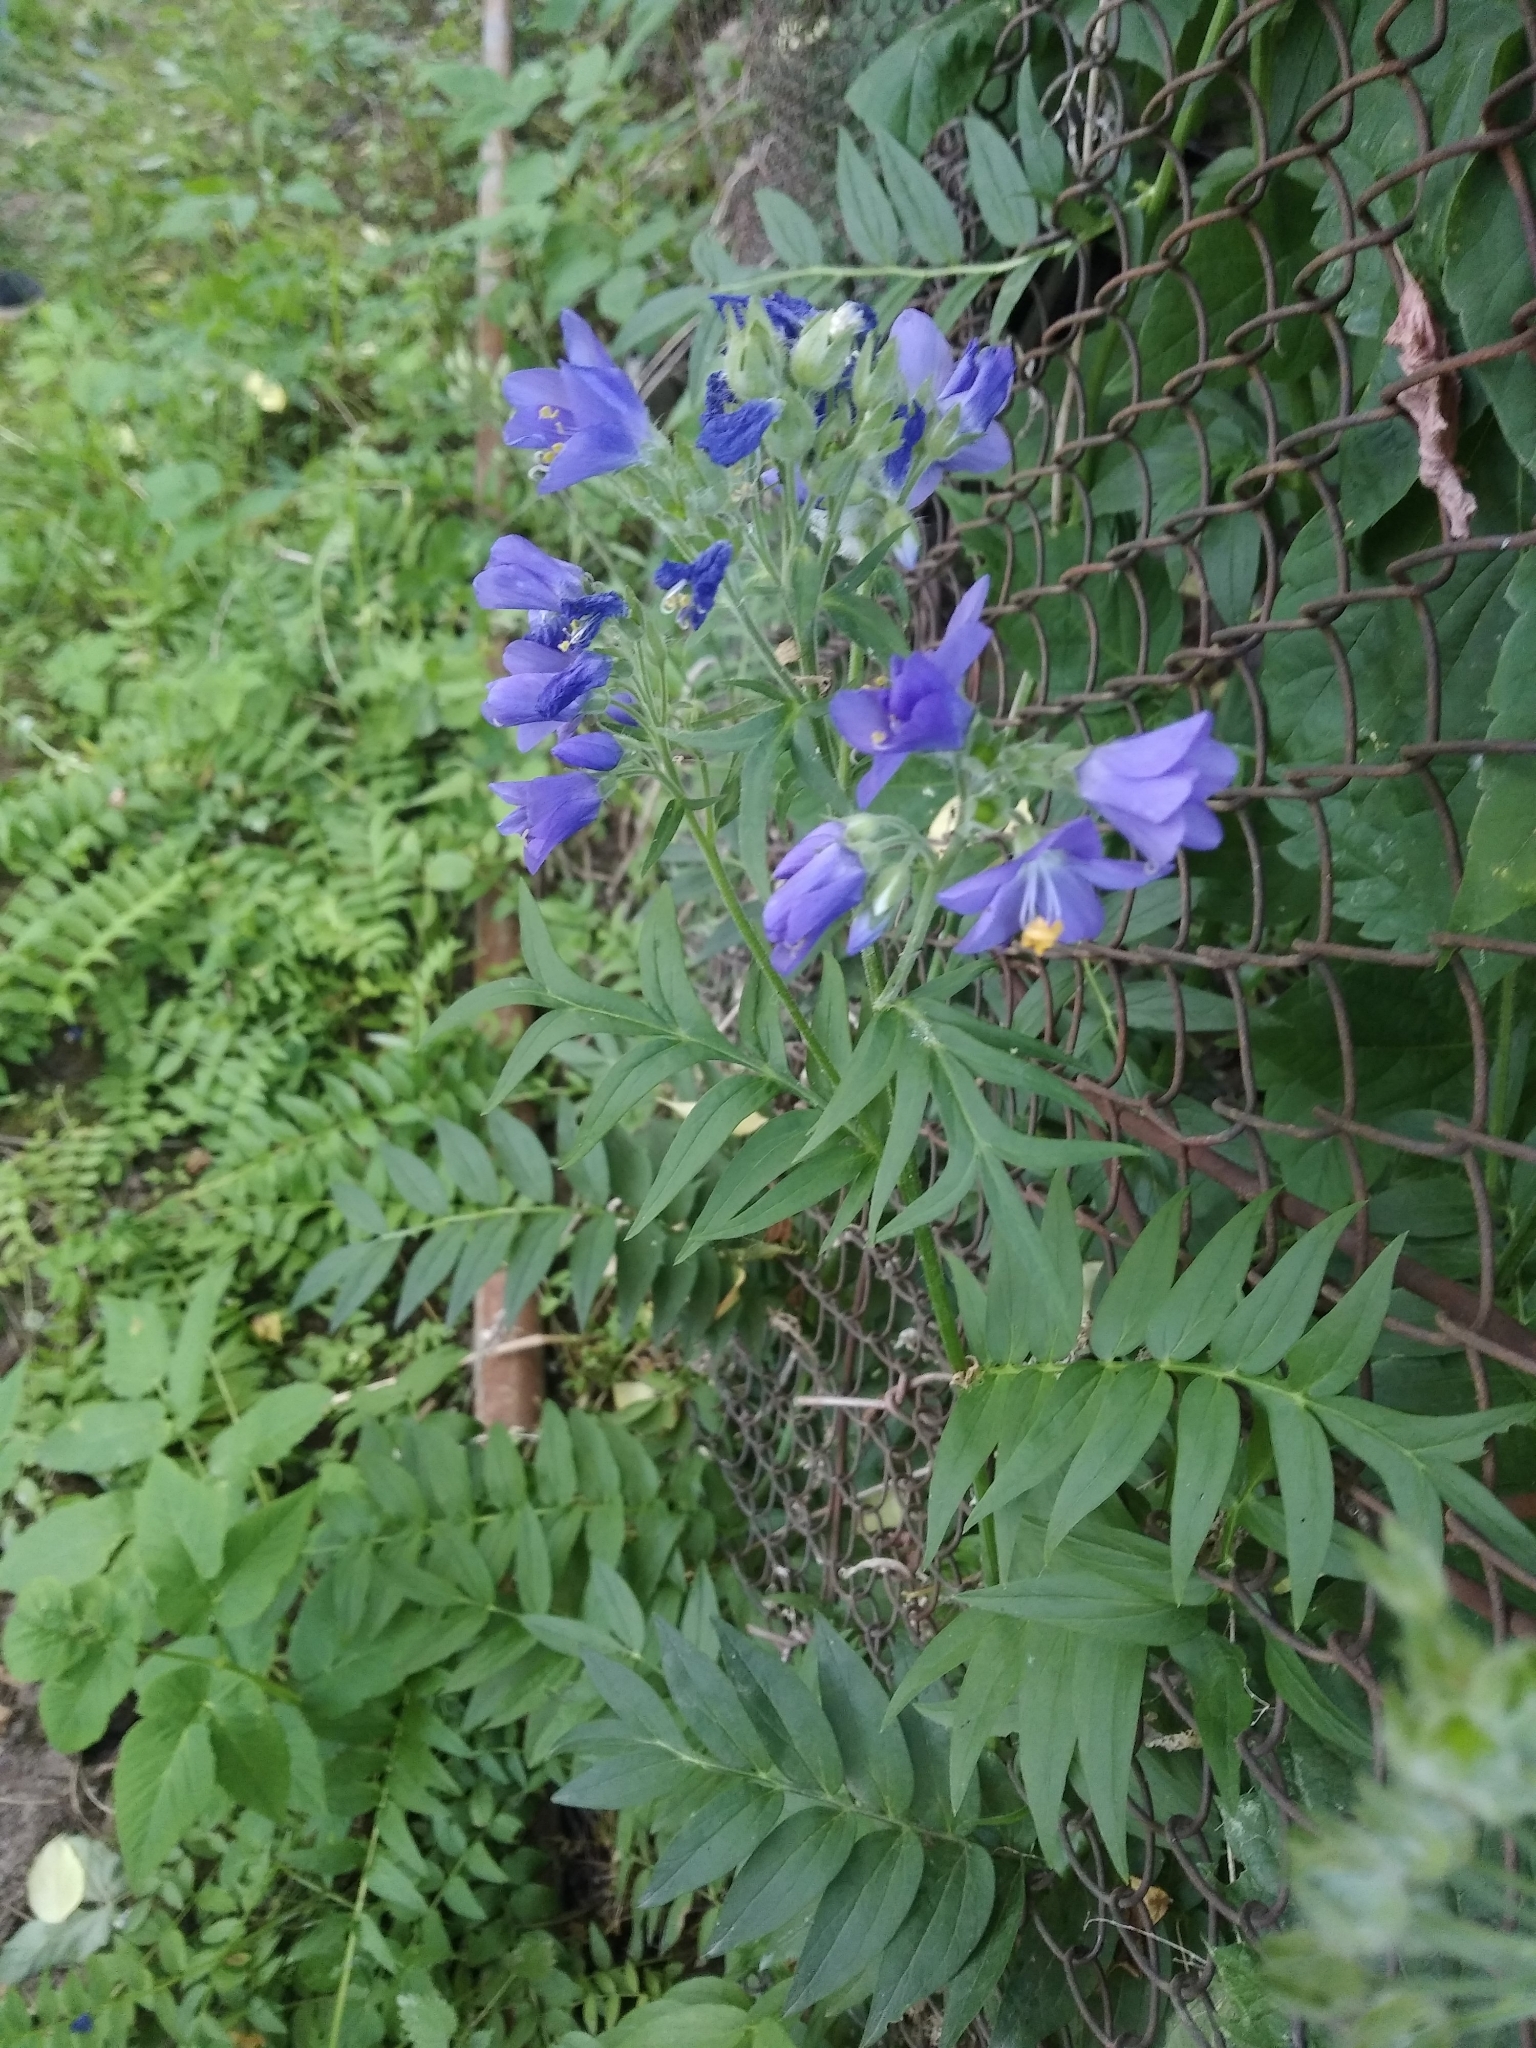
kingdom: Plantae
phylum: Tracheophyta
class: Magnoliopsida
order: Ericales
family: Polemoniaceae
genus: Polemonium
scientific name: Polemonium caeruleum
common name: Jacob's-ladder
